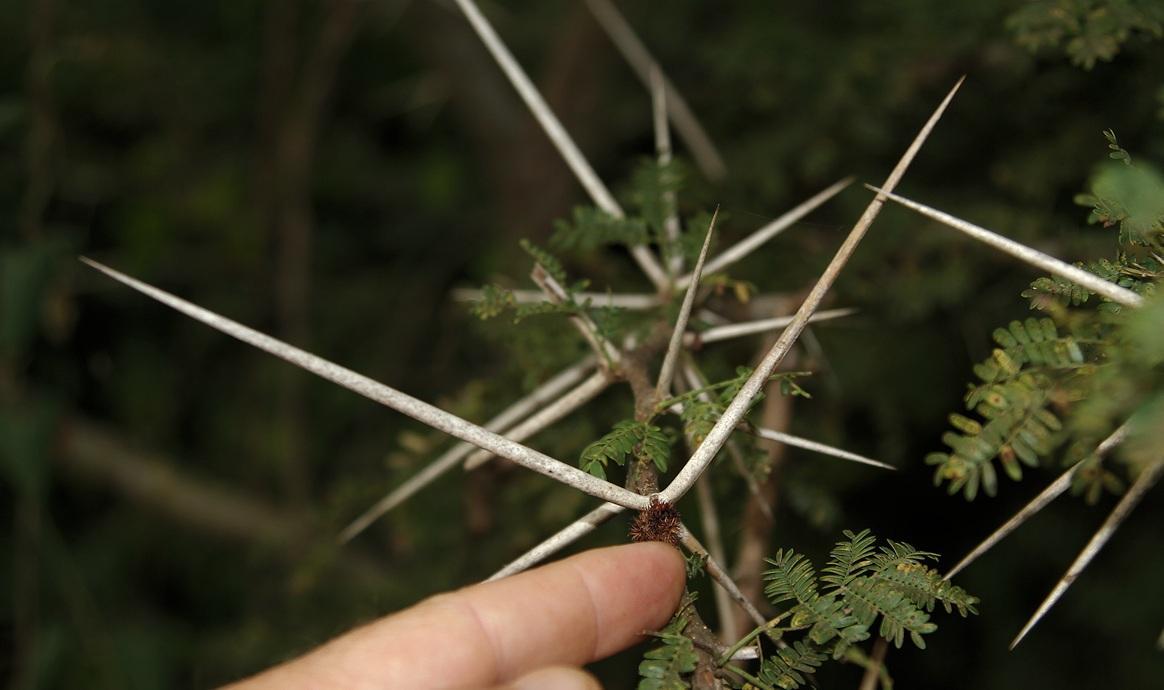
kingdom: Plantae
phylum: Tracheophyta
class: Magnoliopsida
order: Fabales
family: Fabaceae
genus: Vachellia
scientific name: Vachellia robusta
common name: Ankle thorn
